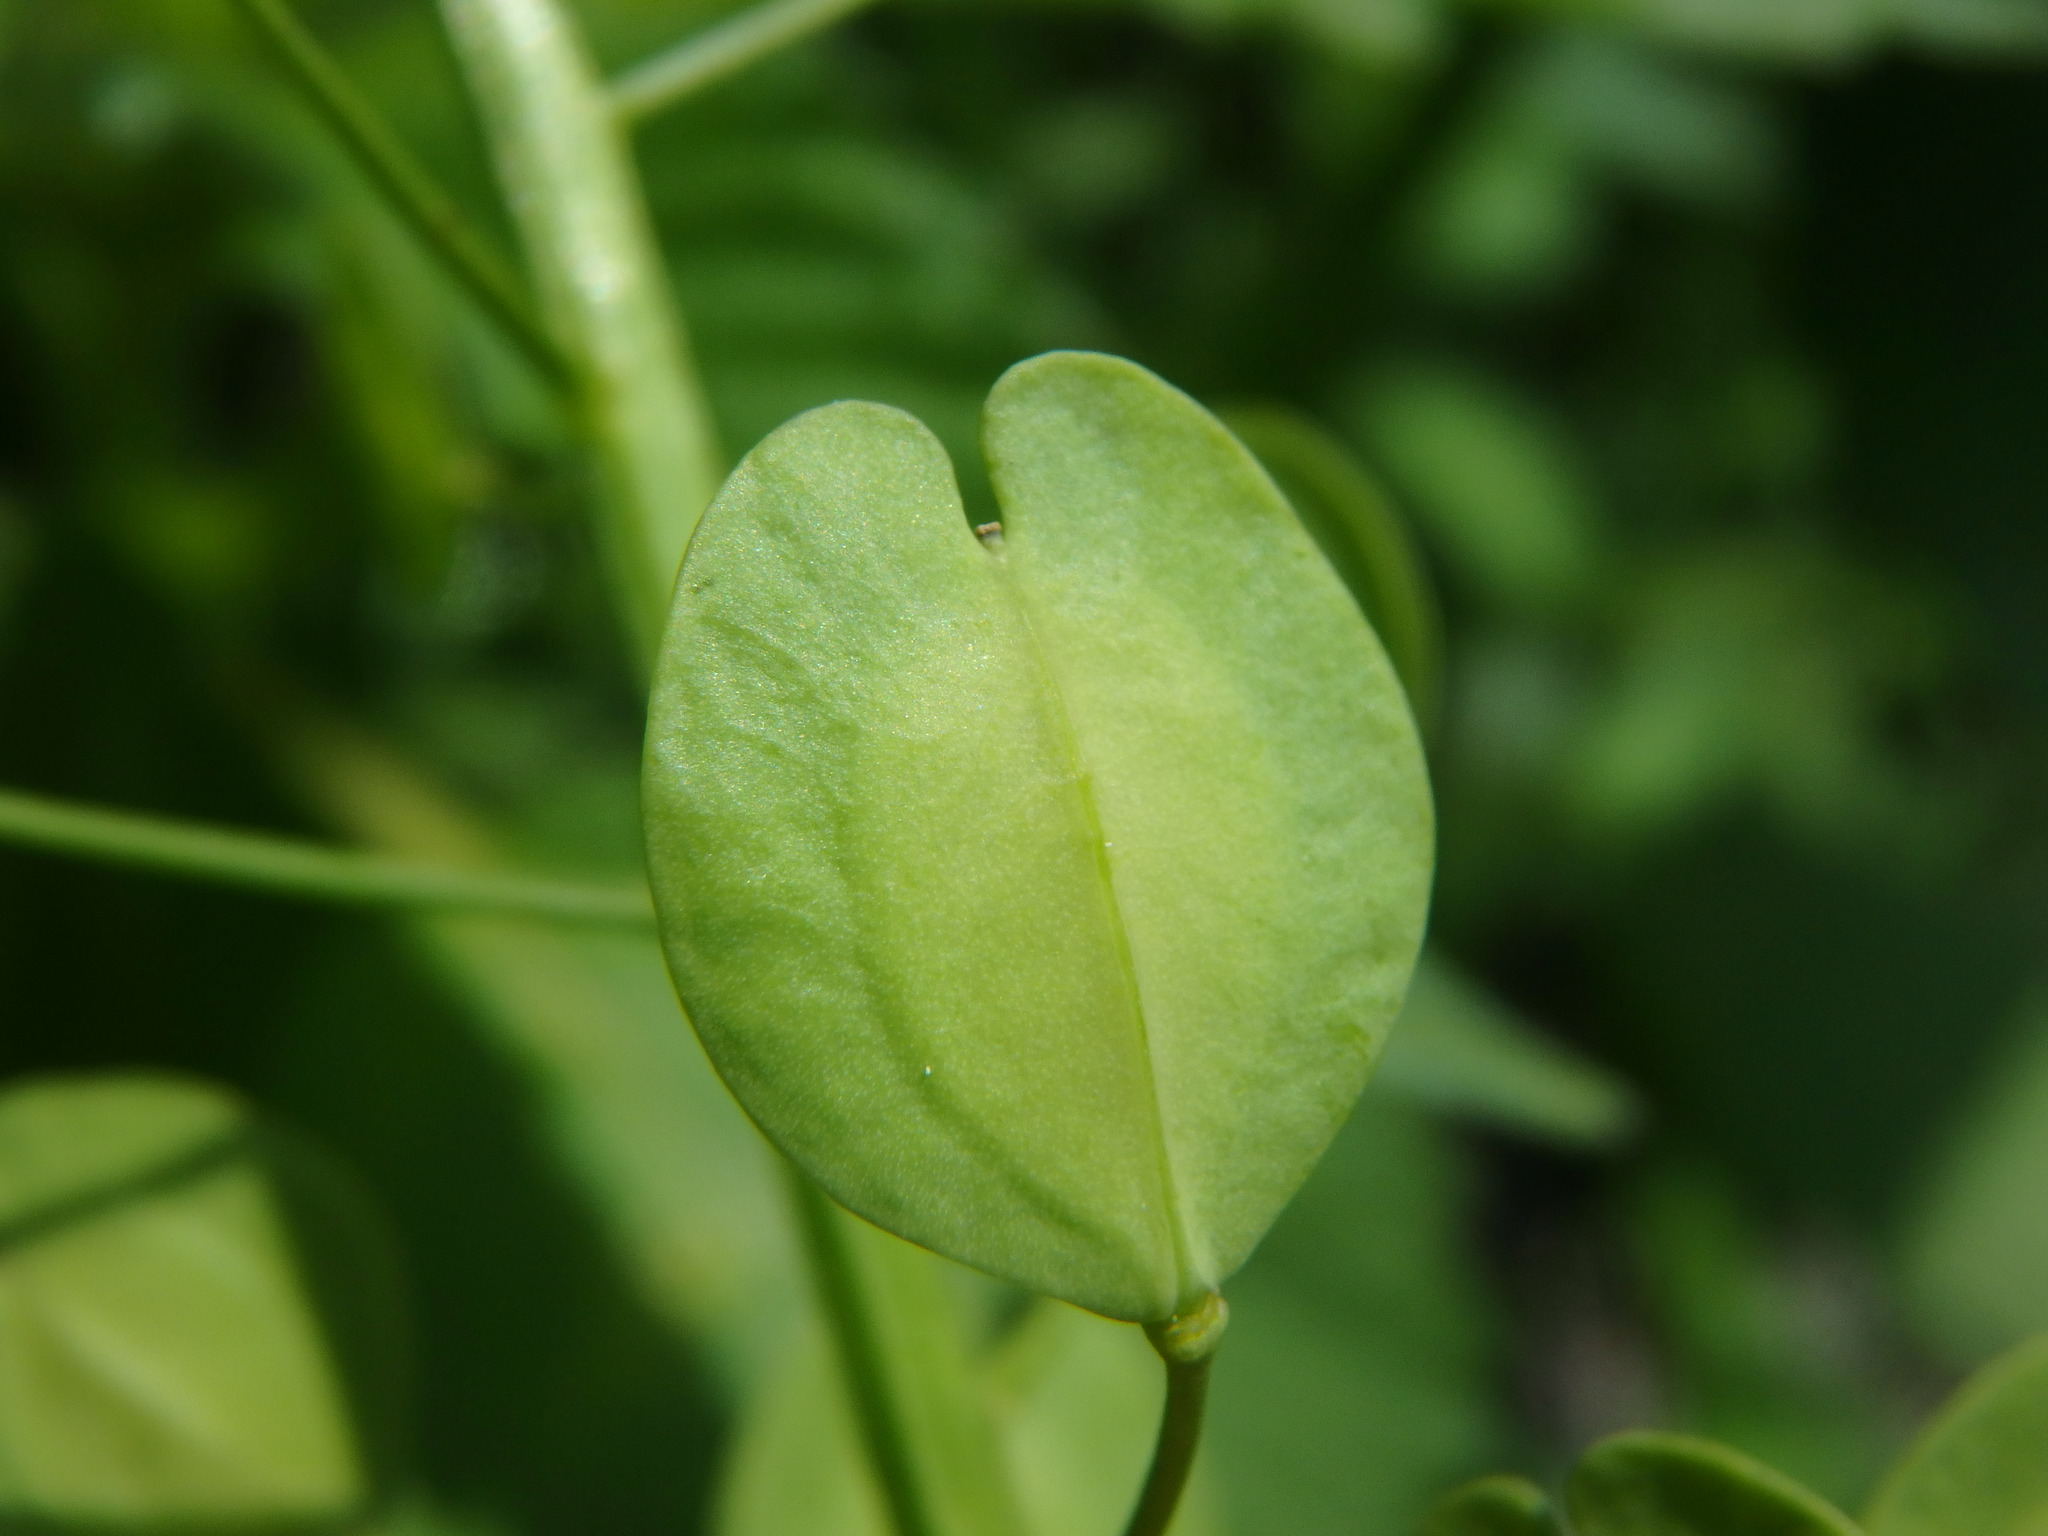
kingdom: Plantae
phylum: Tracheophyta
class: Magnoliopsida
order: Brassicales
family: Brassicaceae
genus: Thlaspi
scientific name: Thlaspi arvense
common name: Field pennycress
